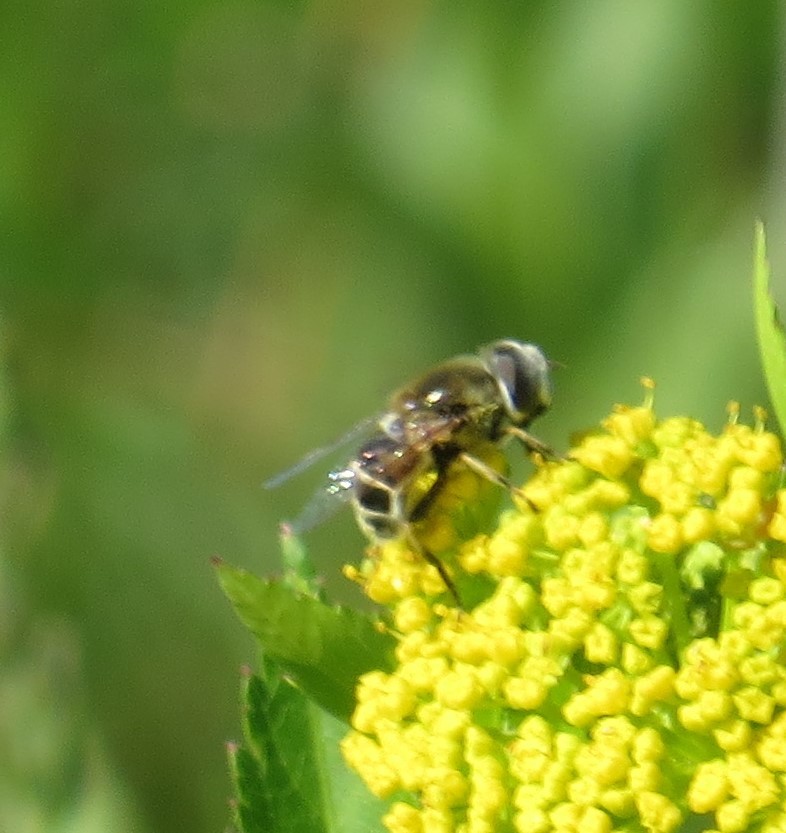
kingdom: Animalia
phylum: Arthropoda
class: Insecta
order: Diptera
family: Syrphidae
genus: Eristalis
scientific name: Eristalis stipator
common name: Yellow-shouldered drone fly
